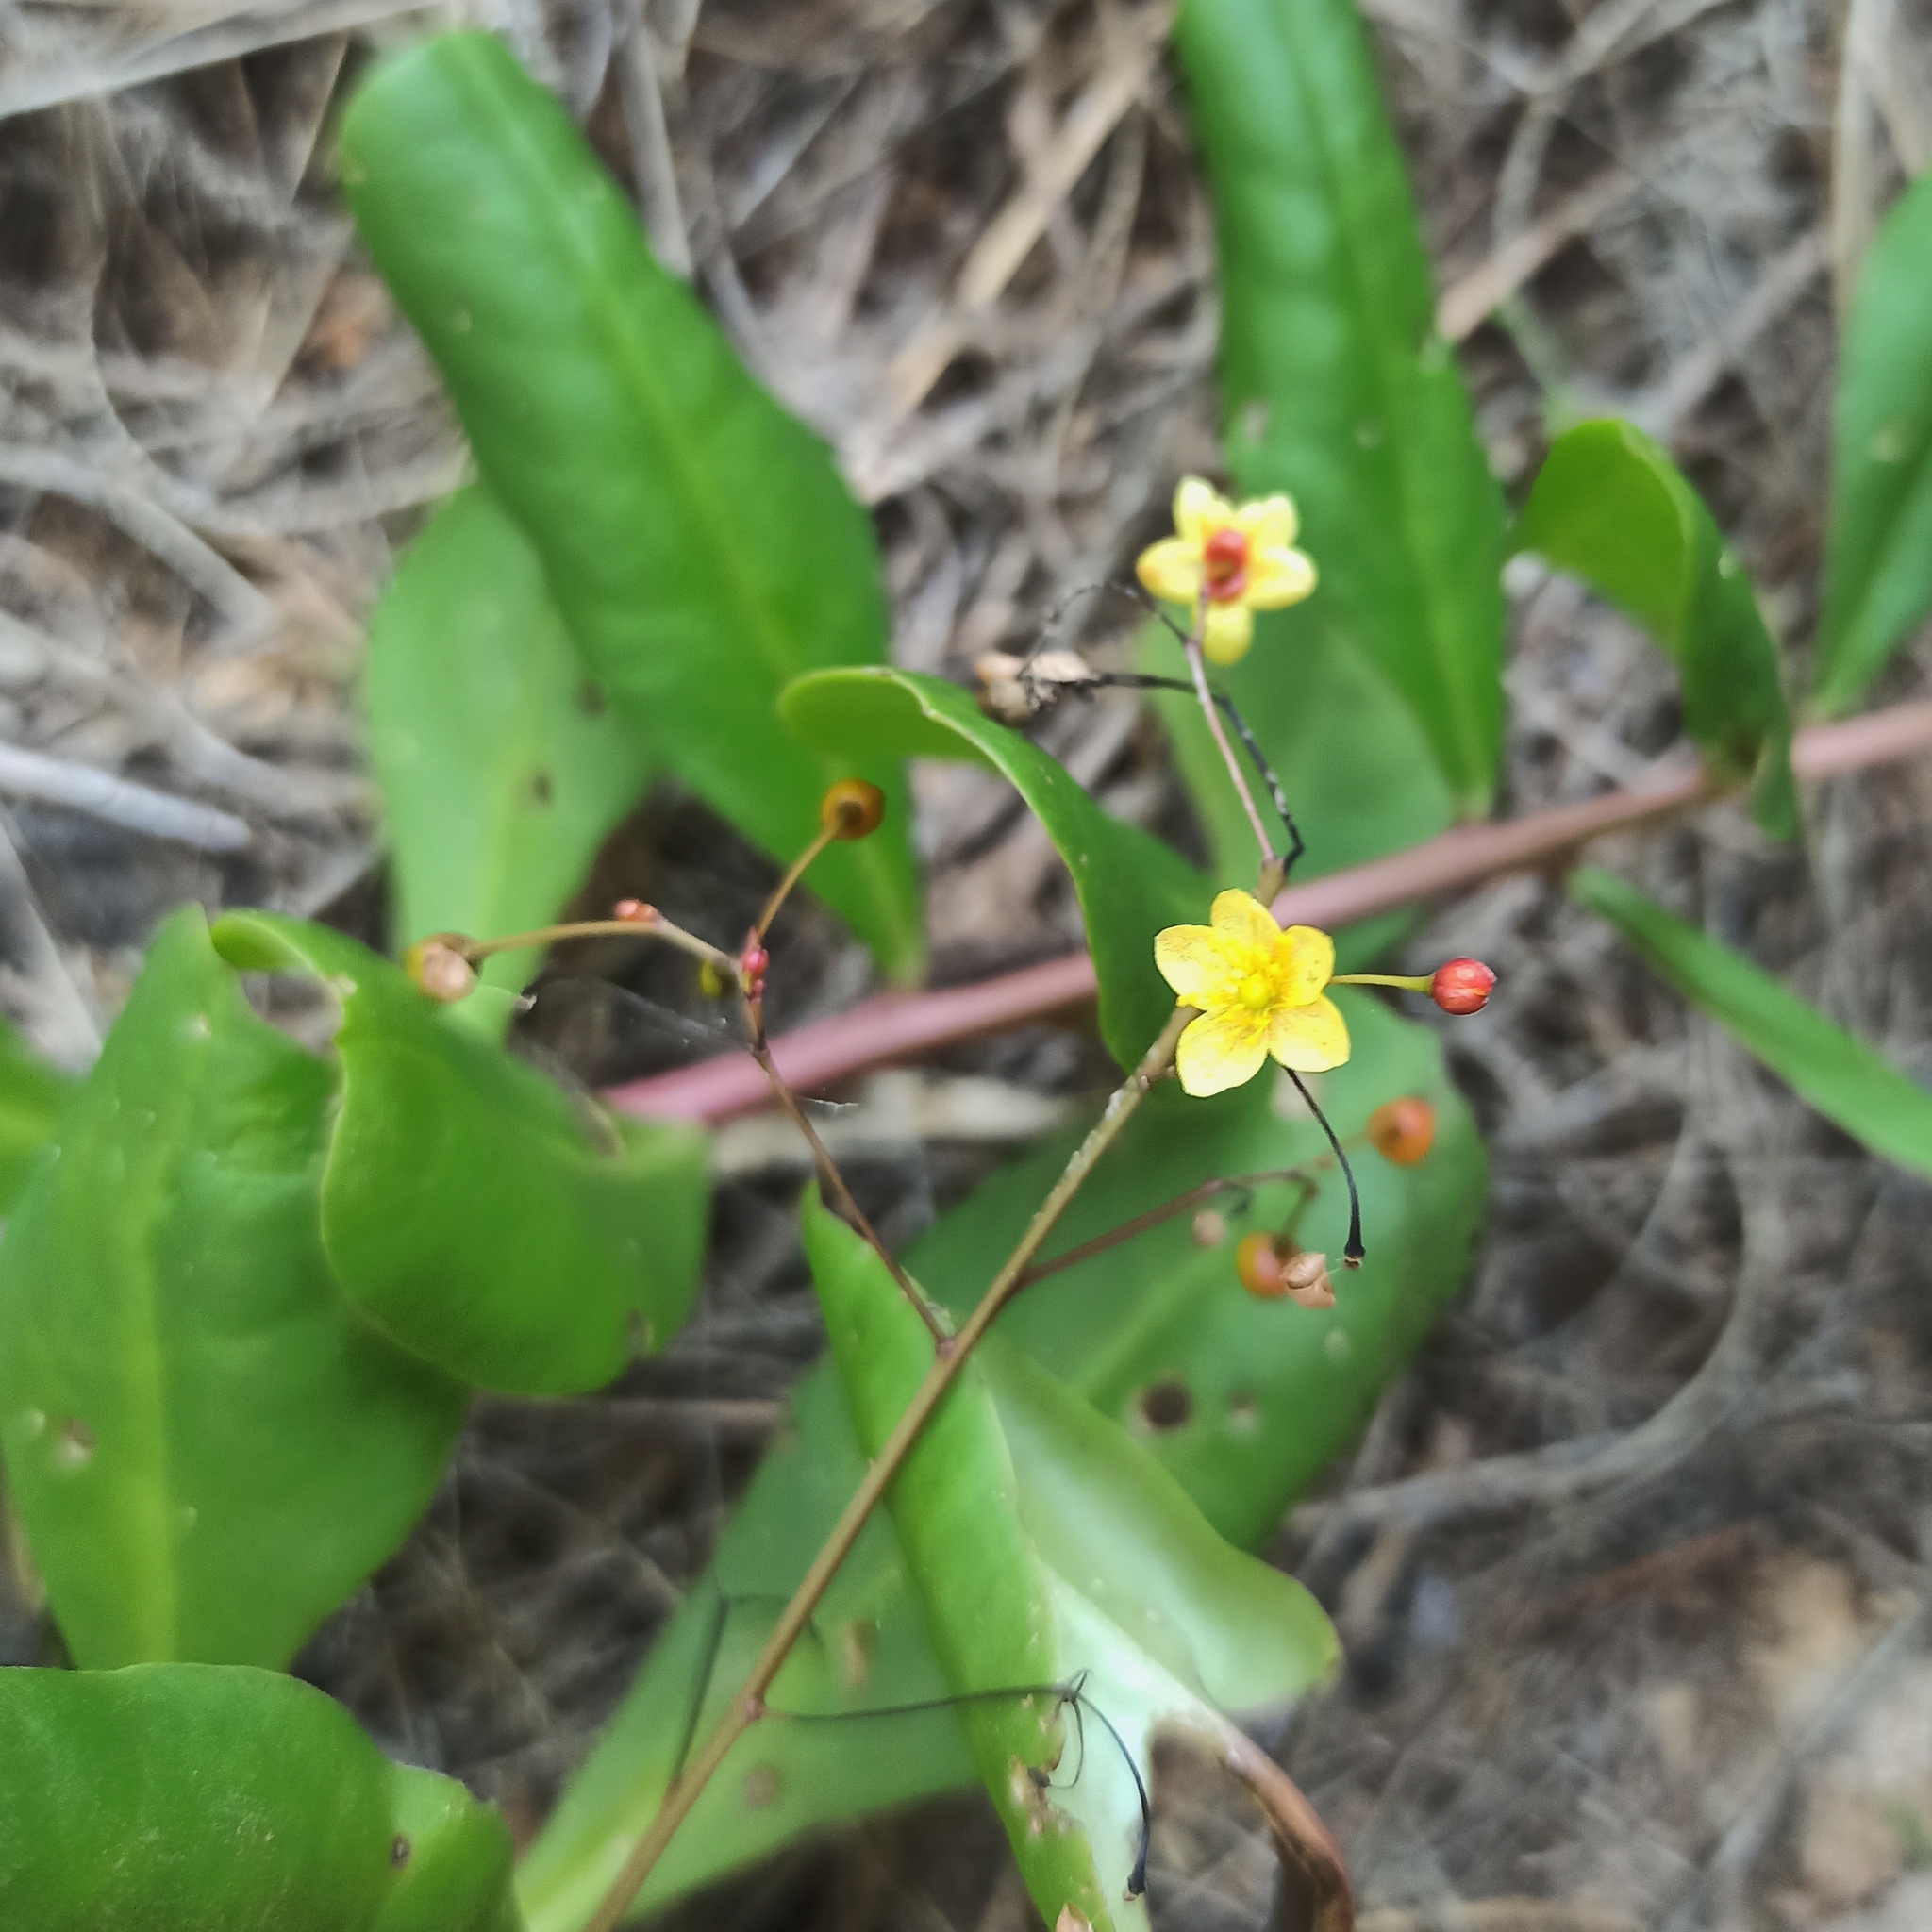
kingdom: Plantae
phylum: Tracheophyta
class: Magnoliopsida
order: Caryophyllales
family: Talinaceae
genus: Talinum
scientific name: Talinum paniculatum
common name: Jewels of opar
